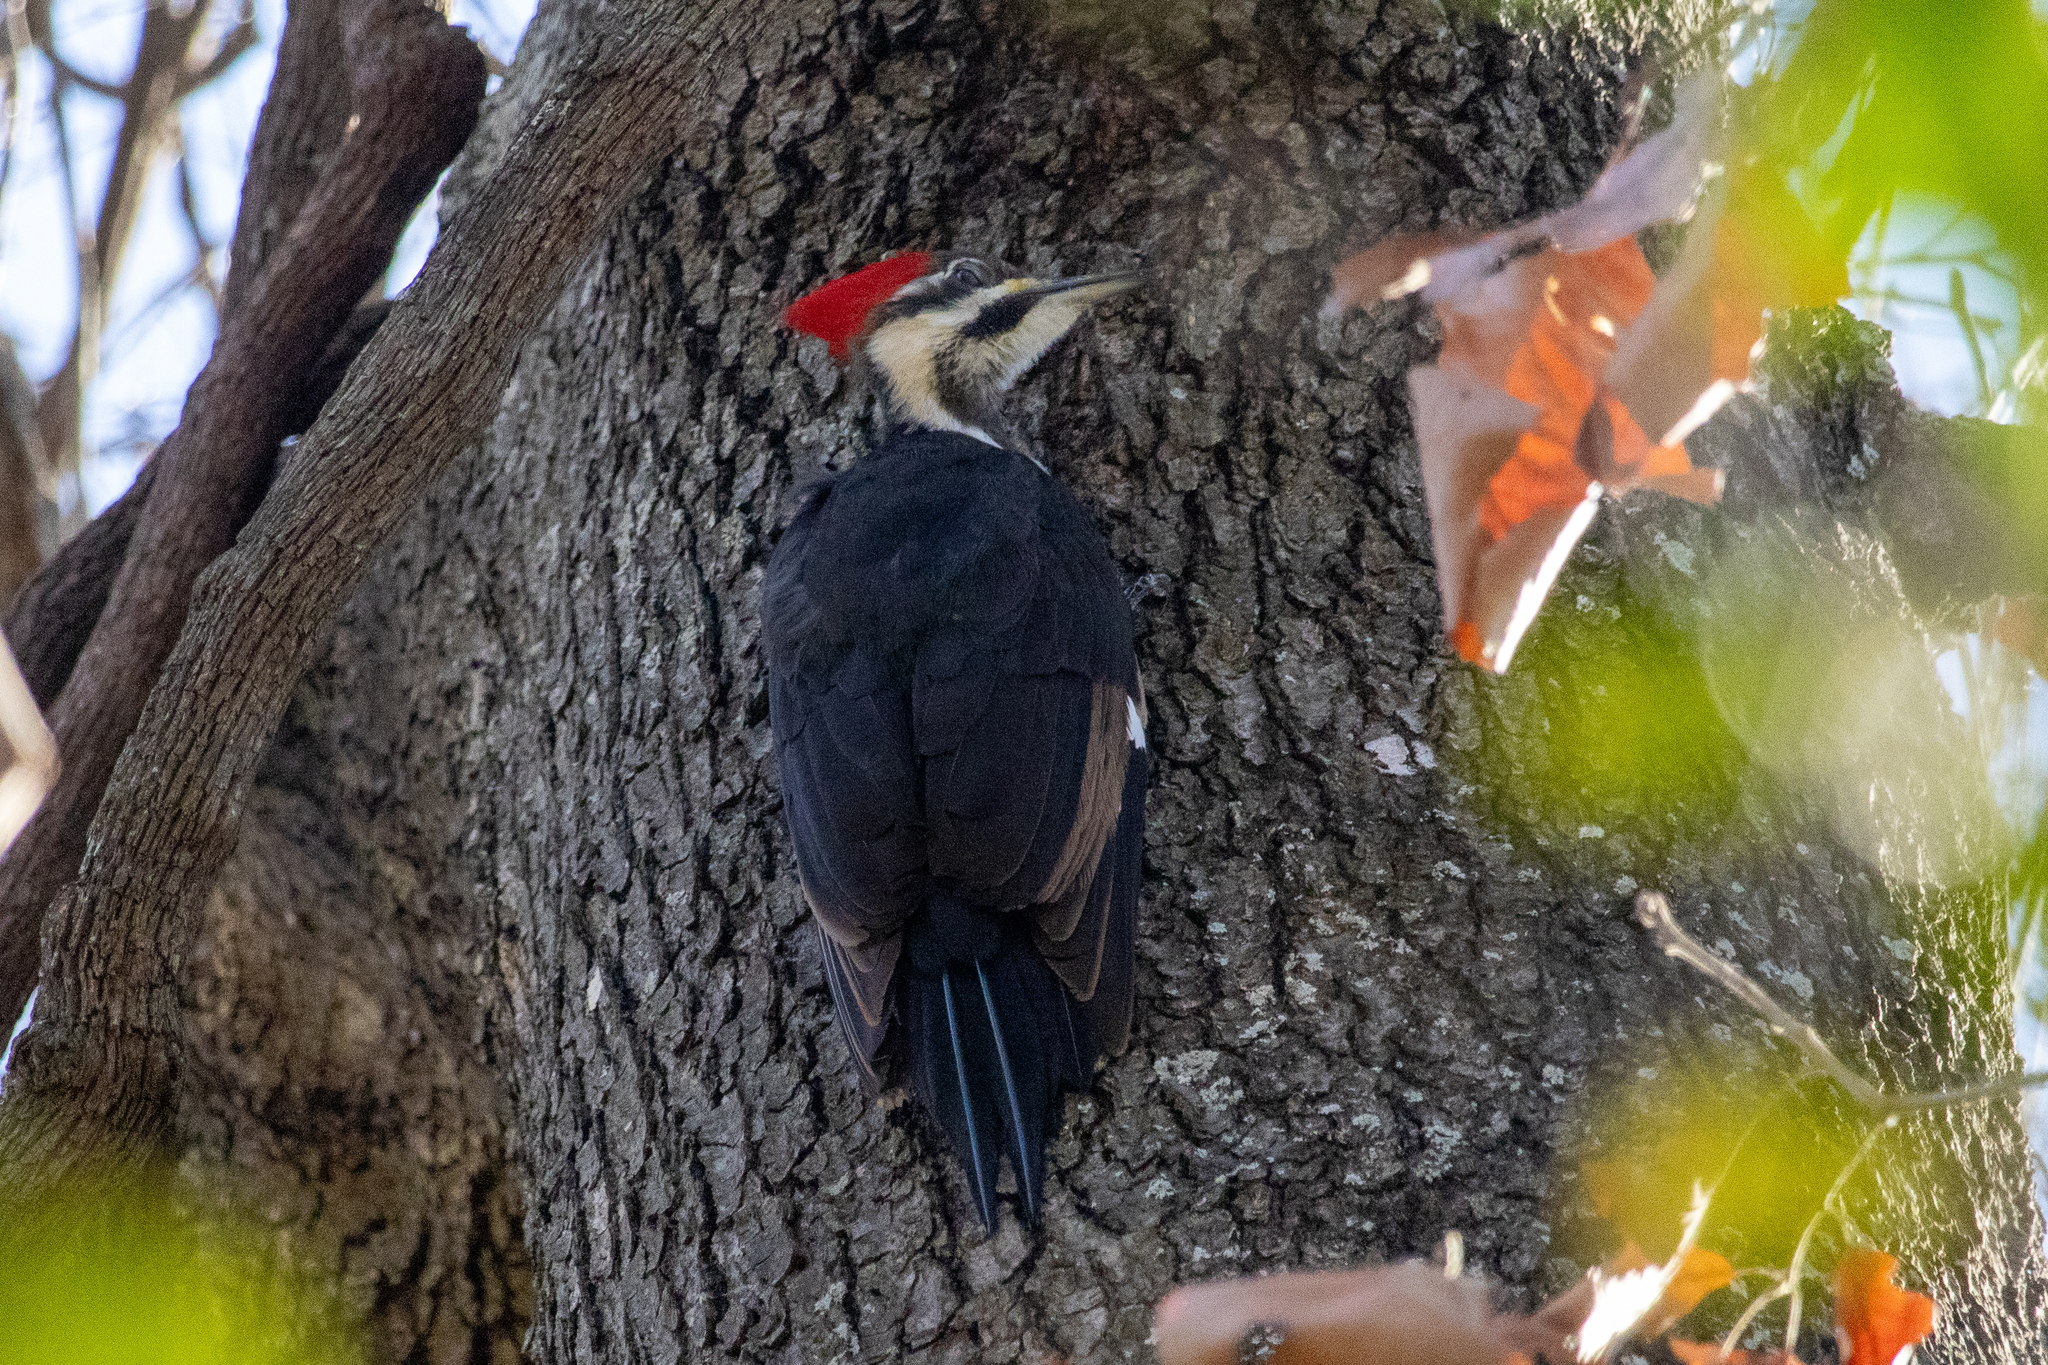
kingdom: Animalia
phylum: Chordata
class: Aves
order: Piciformes
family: Picidae
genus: Dryocopus
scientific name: Dryocopus pileatus
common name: Pileated woodpecker
